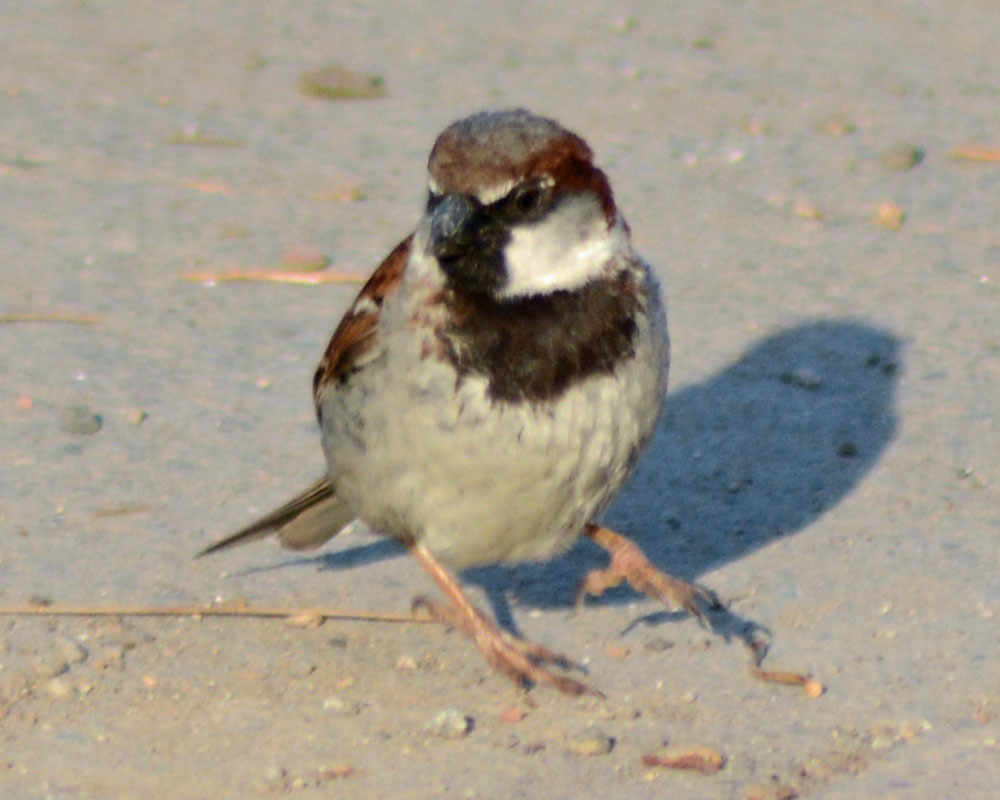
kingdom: Animalia
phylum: Chordata
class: Aves
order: Passeriformes
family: Passeridae
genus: Passer
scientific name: Passer domesticus
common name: House sparrow
